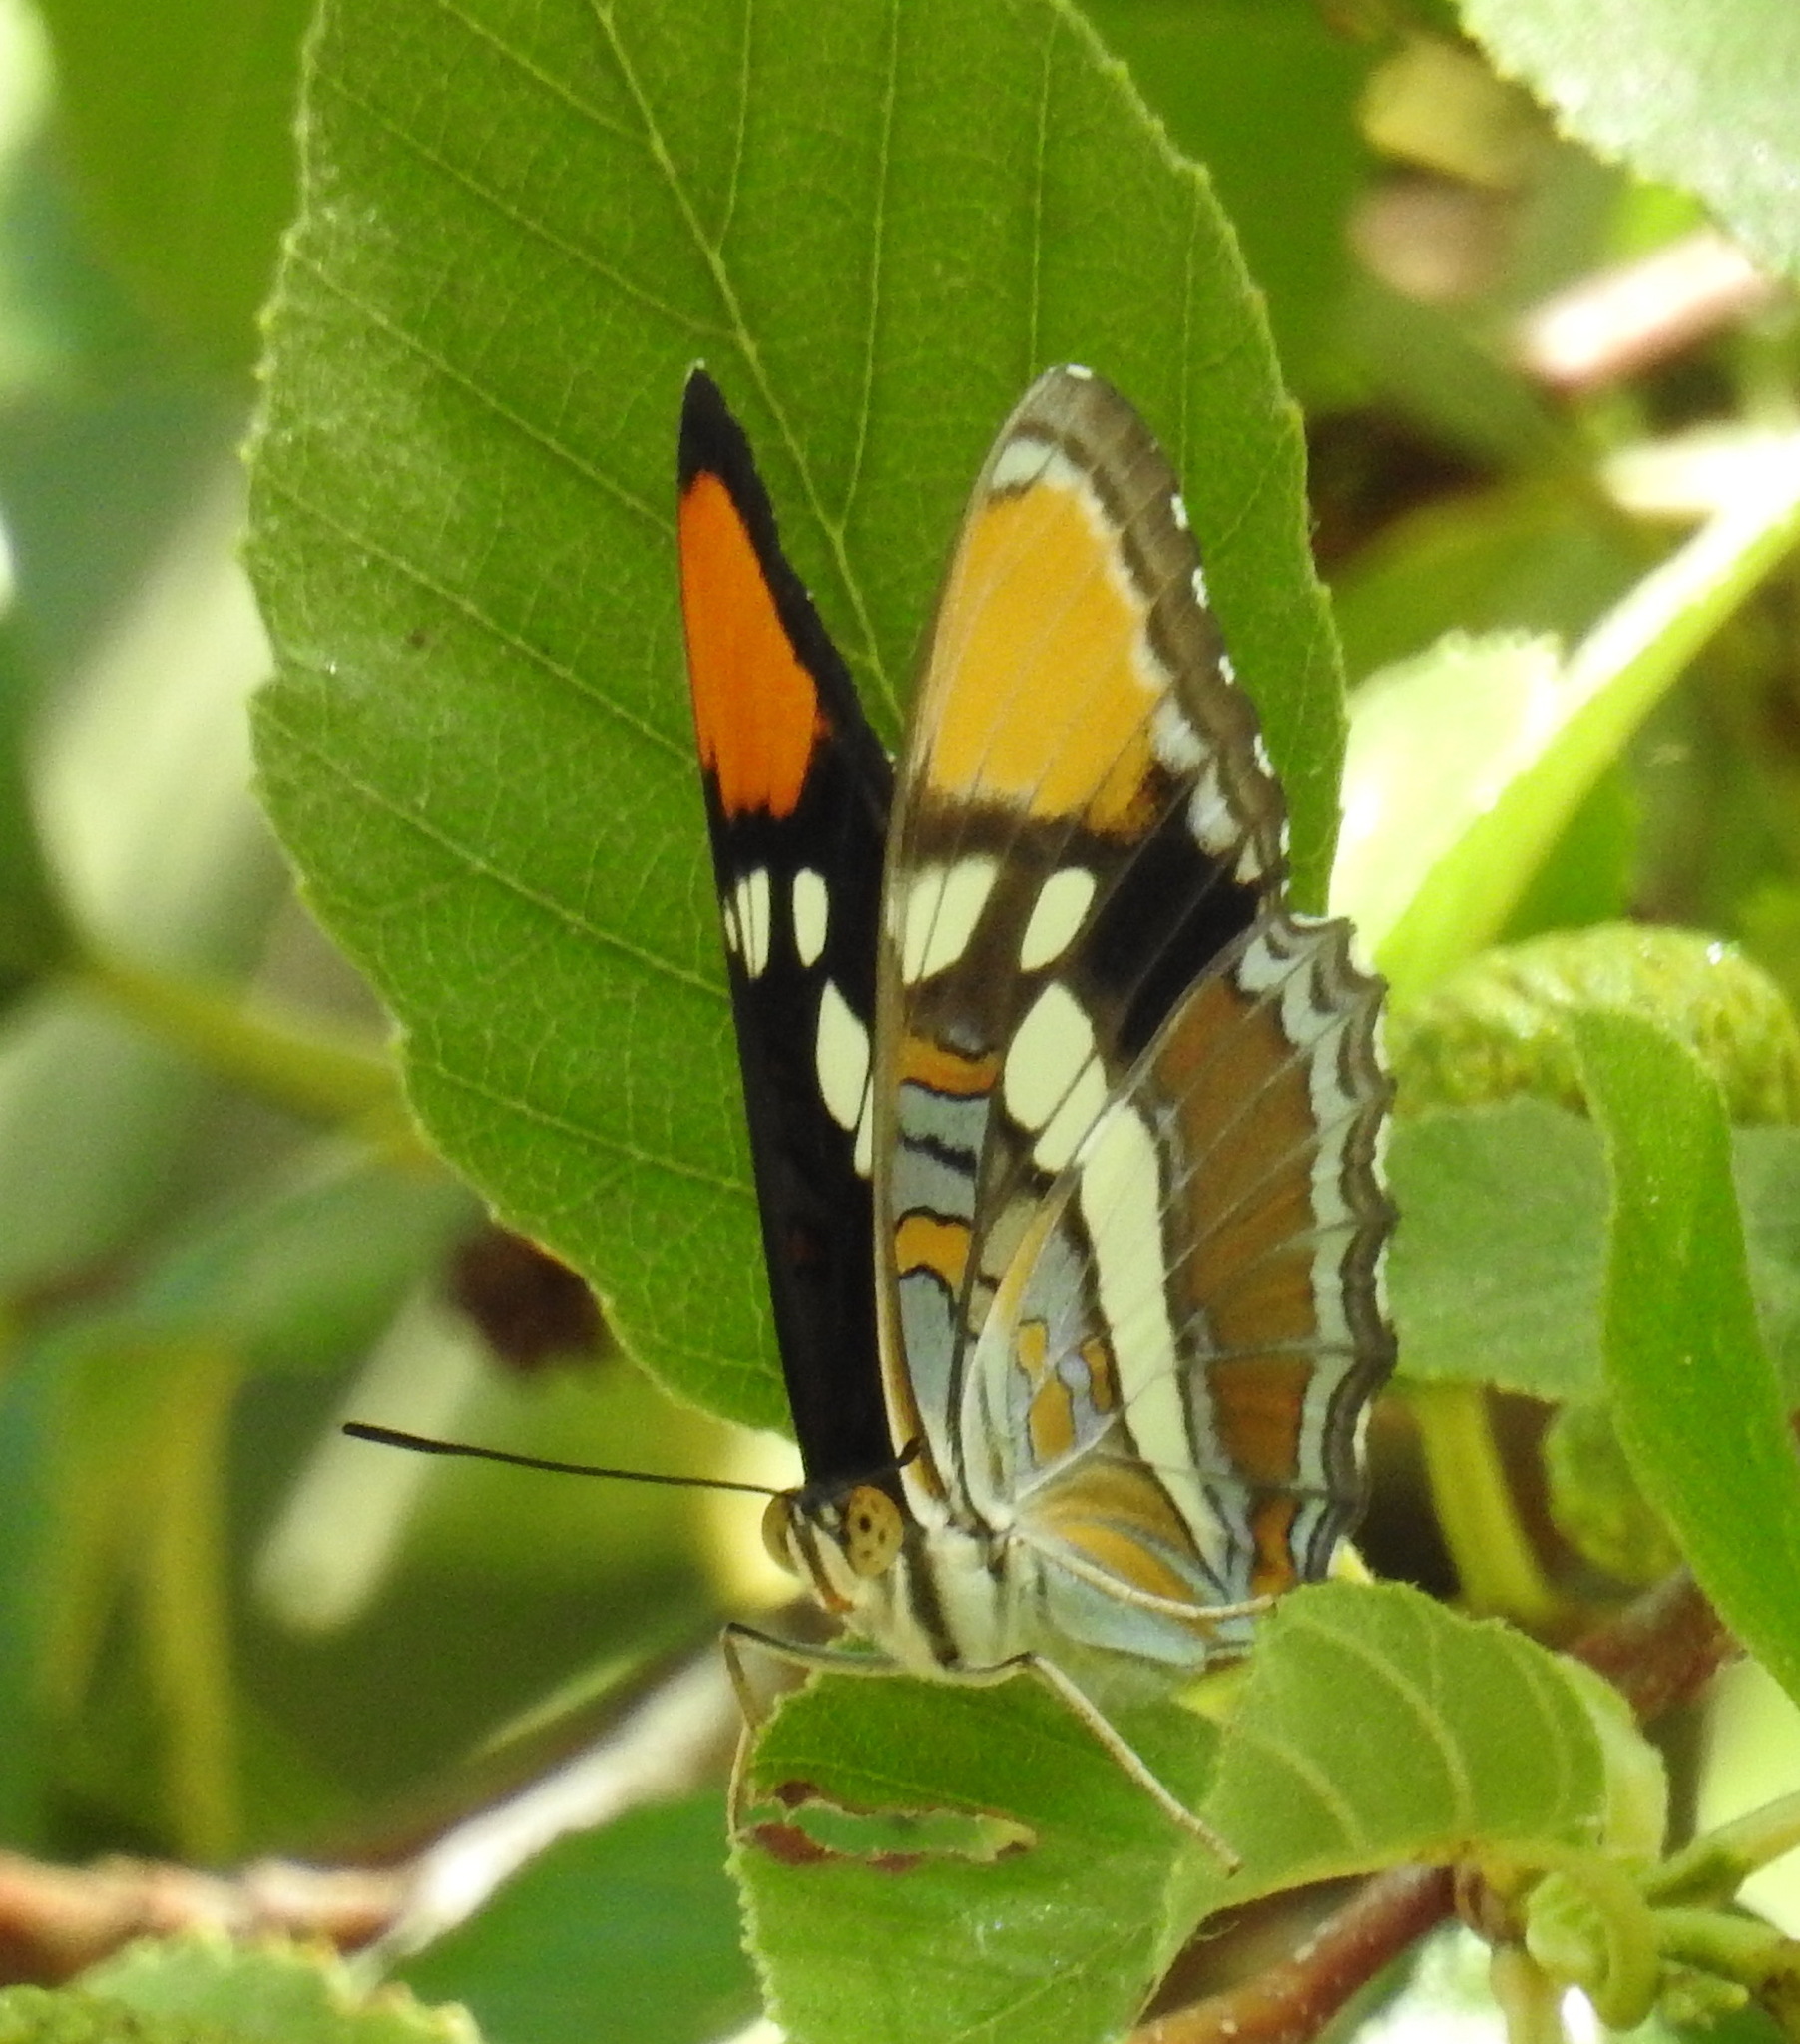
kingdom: Animalia
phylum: Arthropoda
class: Insecta
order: Lepidoptera
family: Nymphalidae
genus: Limenitis
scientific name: Limenitis bredowii
